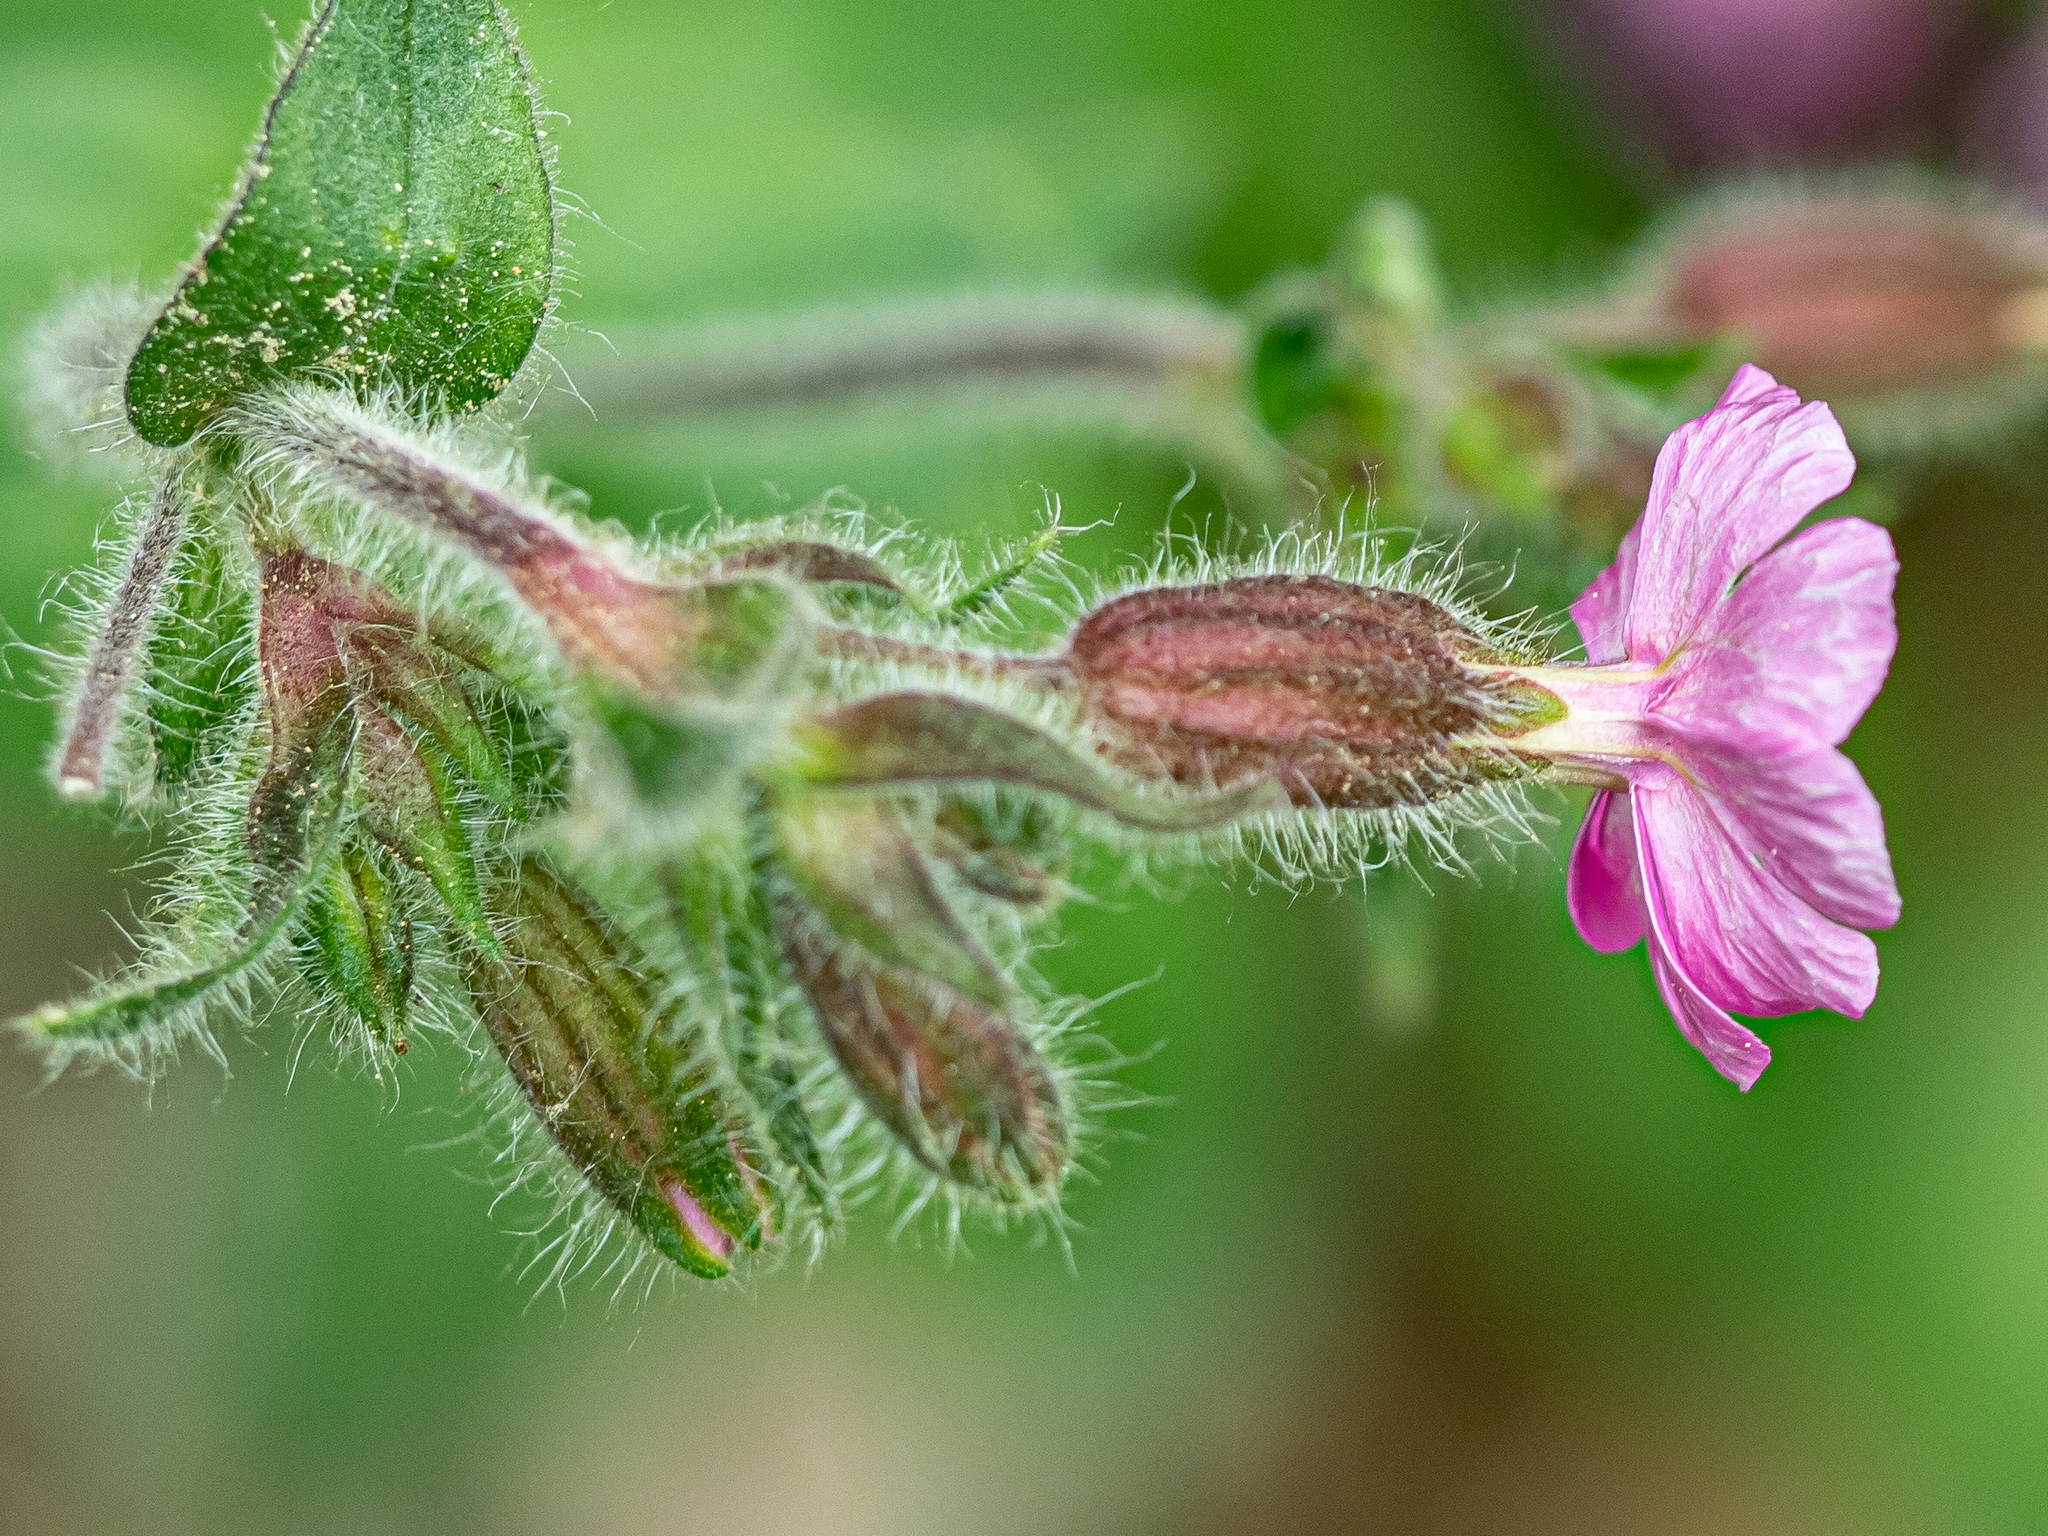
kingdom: Plantae
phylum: Tracheophyta
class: Magnoliopsida
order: Caryophyllales
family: Caryophyllaceae
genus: Silene
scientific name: Silene dioica
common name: Red campion
